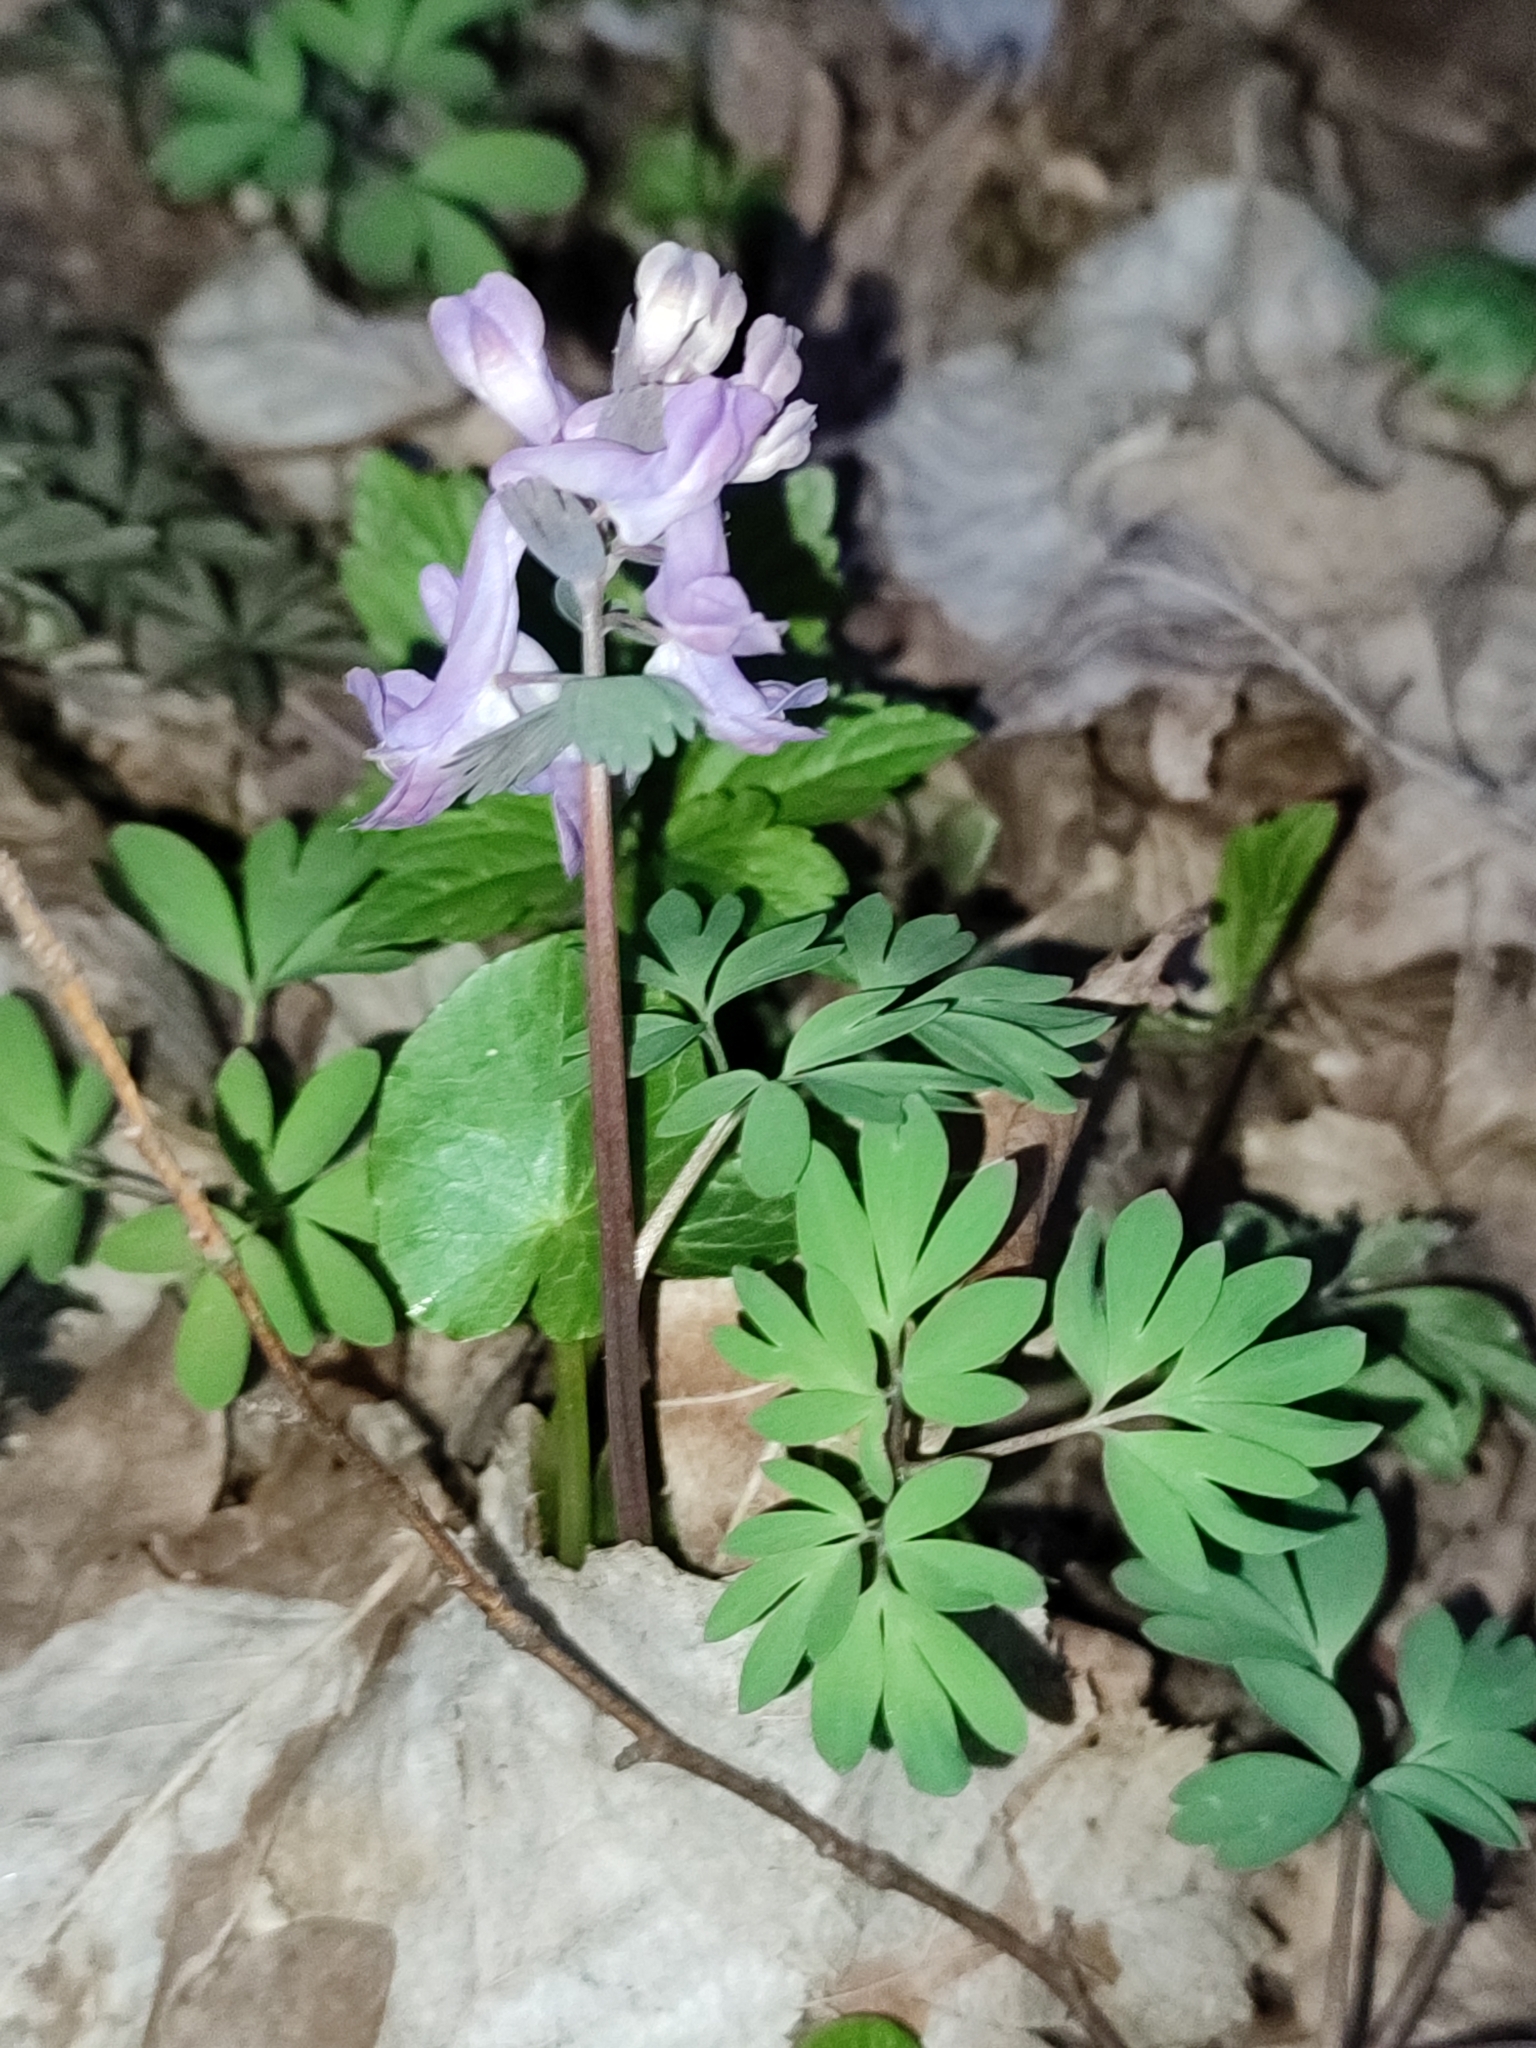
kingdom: Plantae
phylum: Tracheophyta
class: Magnoliopsida
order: Ranunculales
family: Papaveraceae
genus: Corydalis
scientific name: Corydalis solida
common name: Bird-in-a-bush
